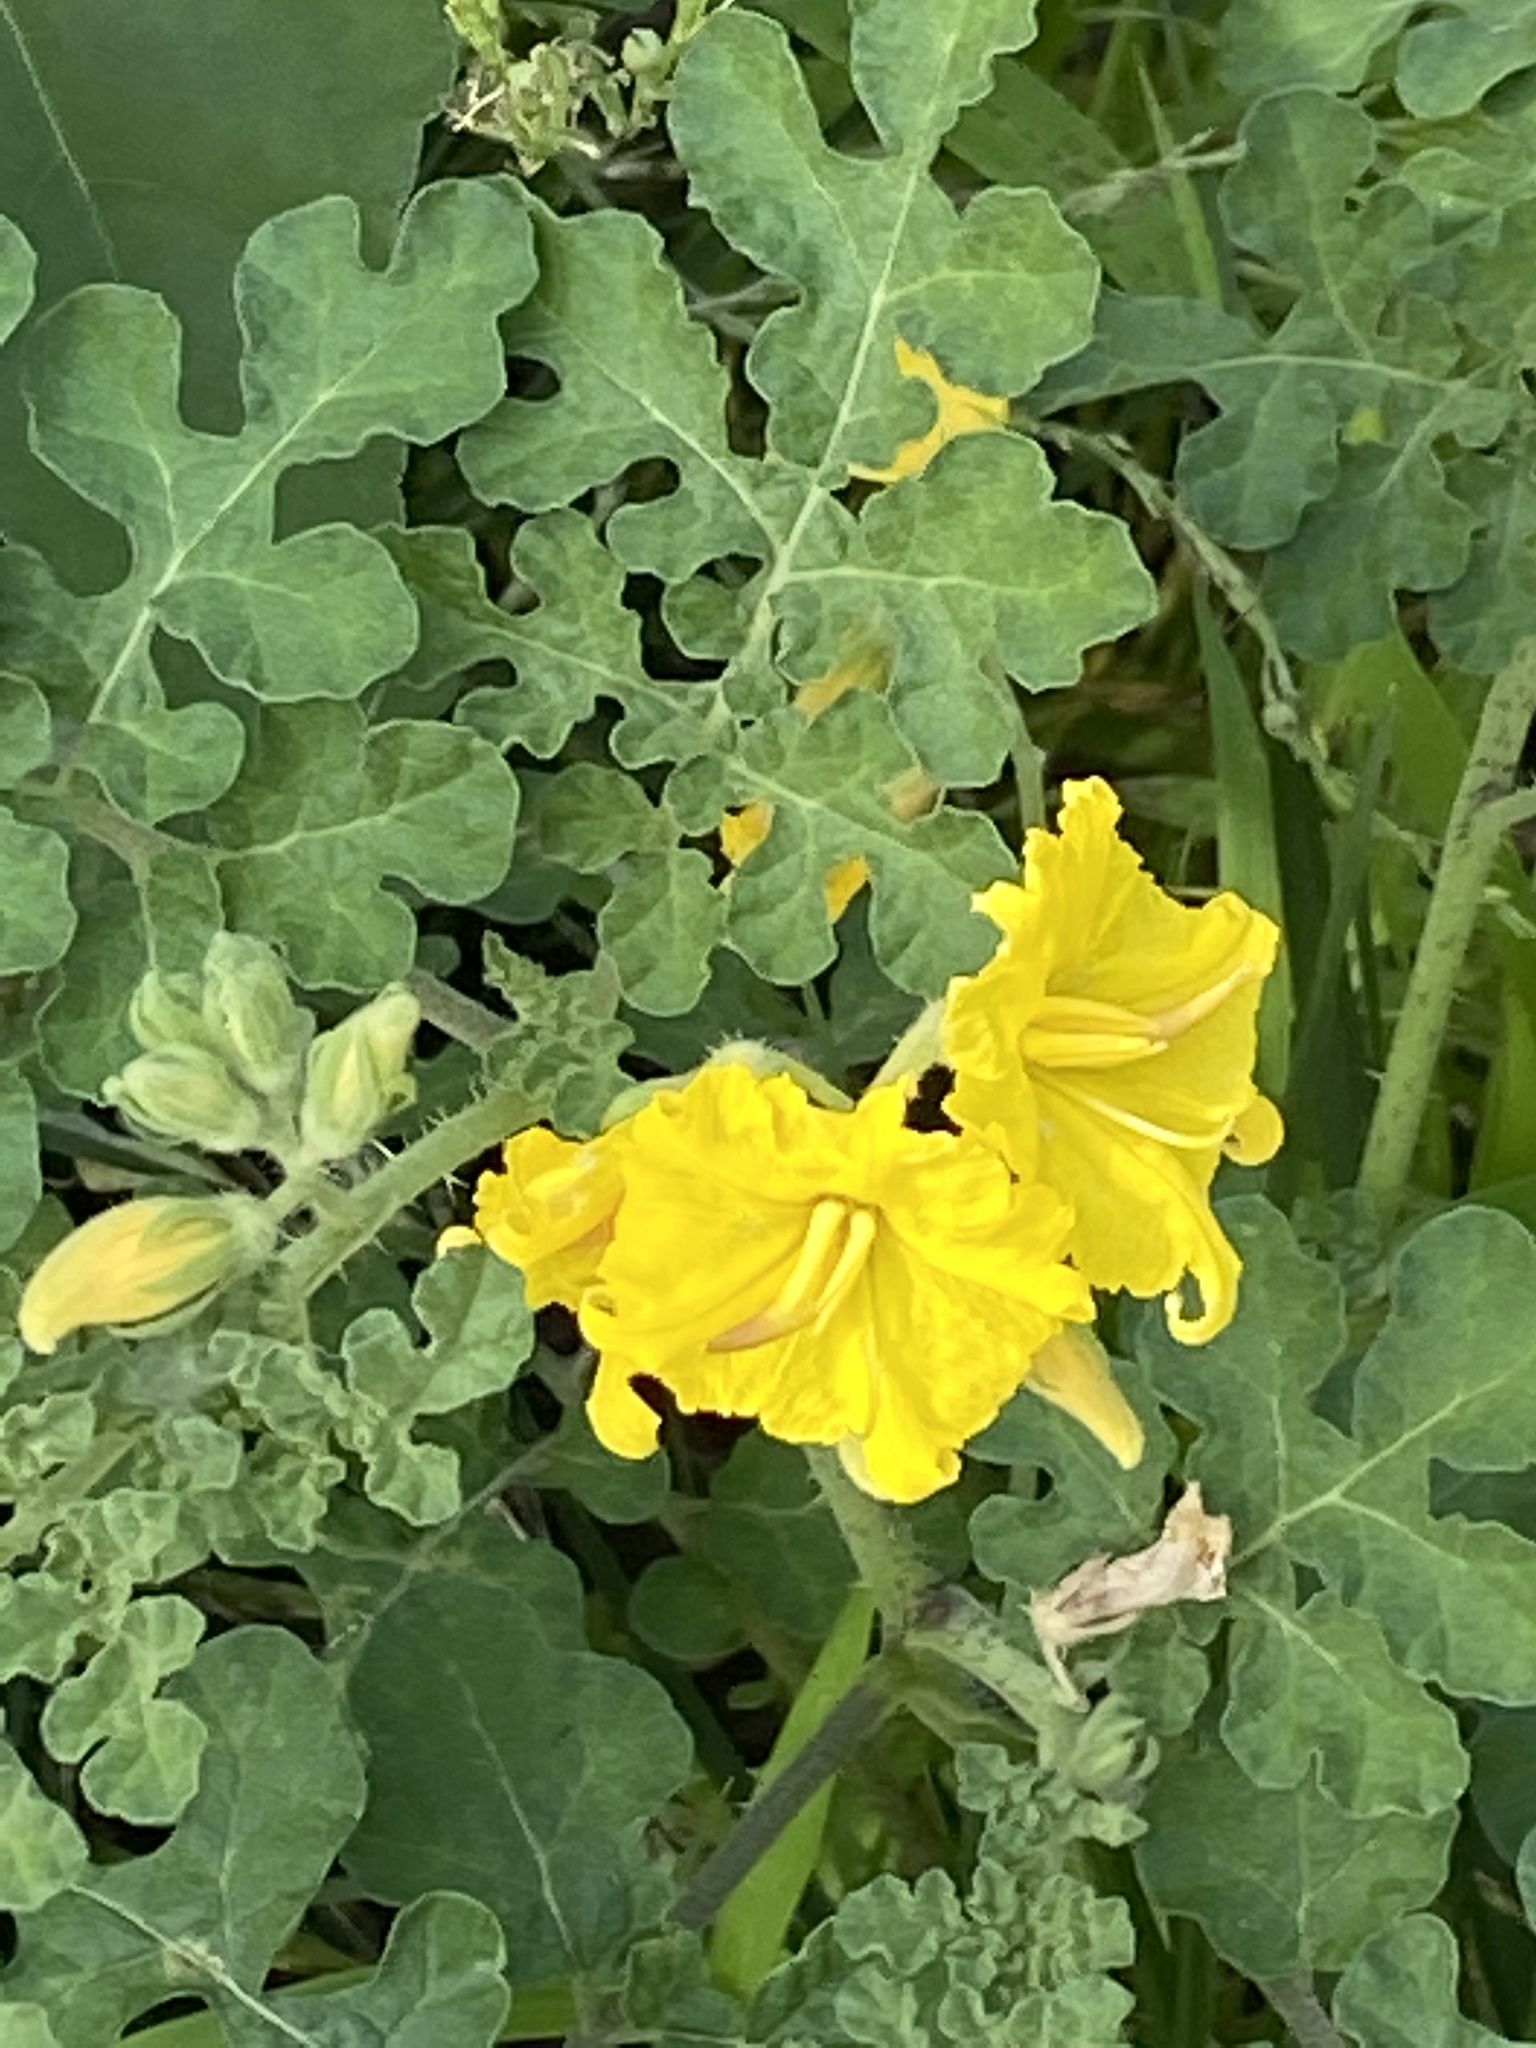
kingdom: Plantae
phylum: Tracheophyta
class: Magnoliopsida
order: Solanales
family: Solanaceae
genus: Solanum
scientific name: Solanum angustifolium
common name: Buffalobur nightshade
